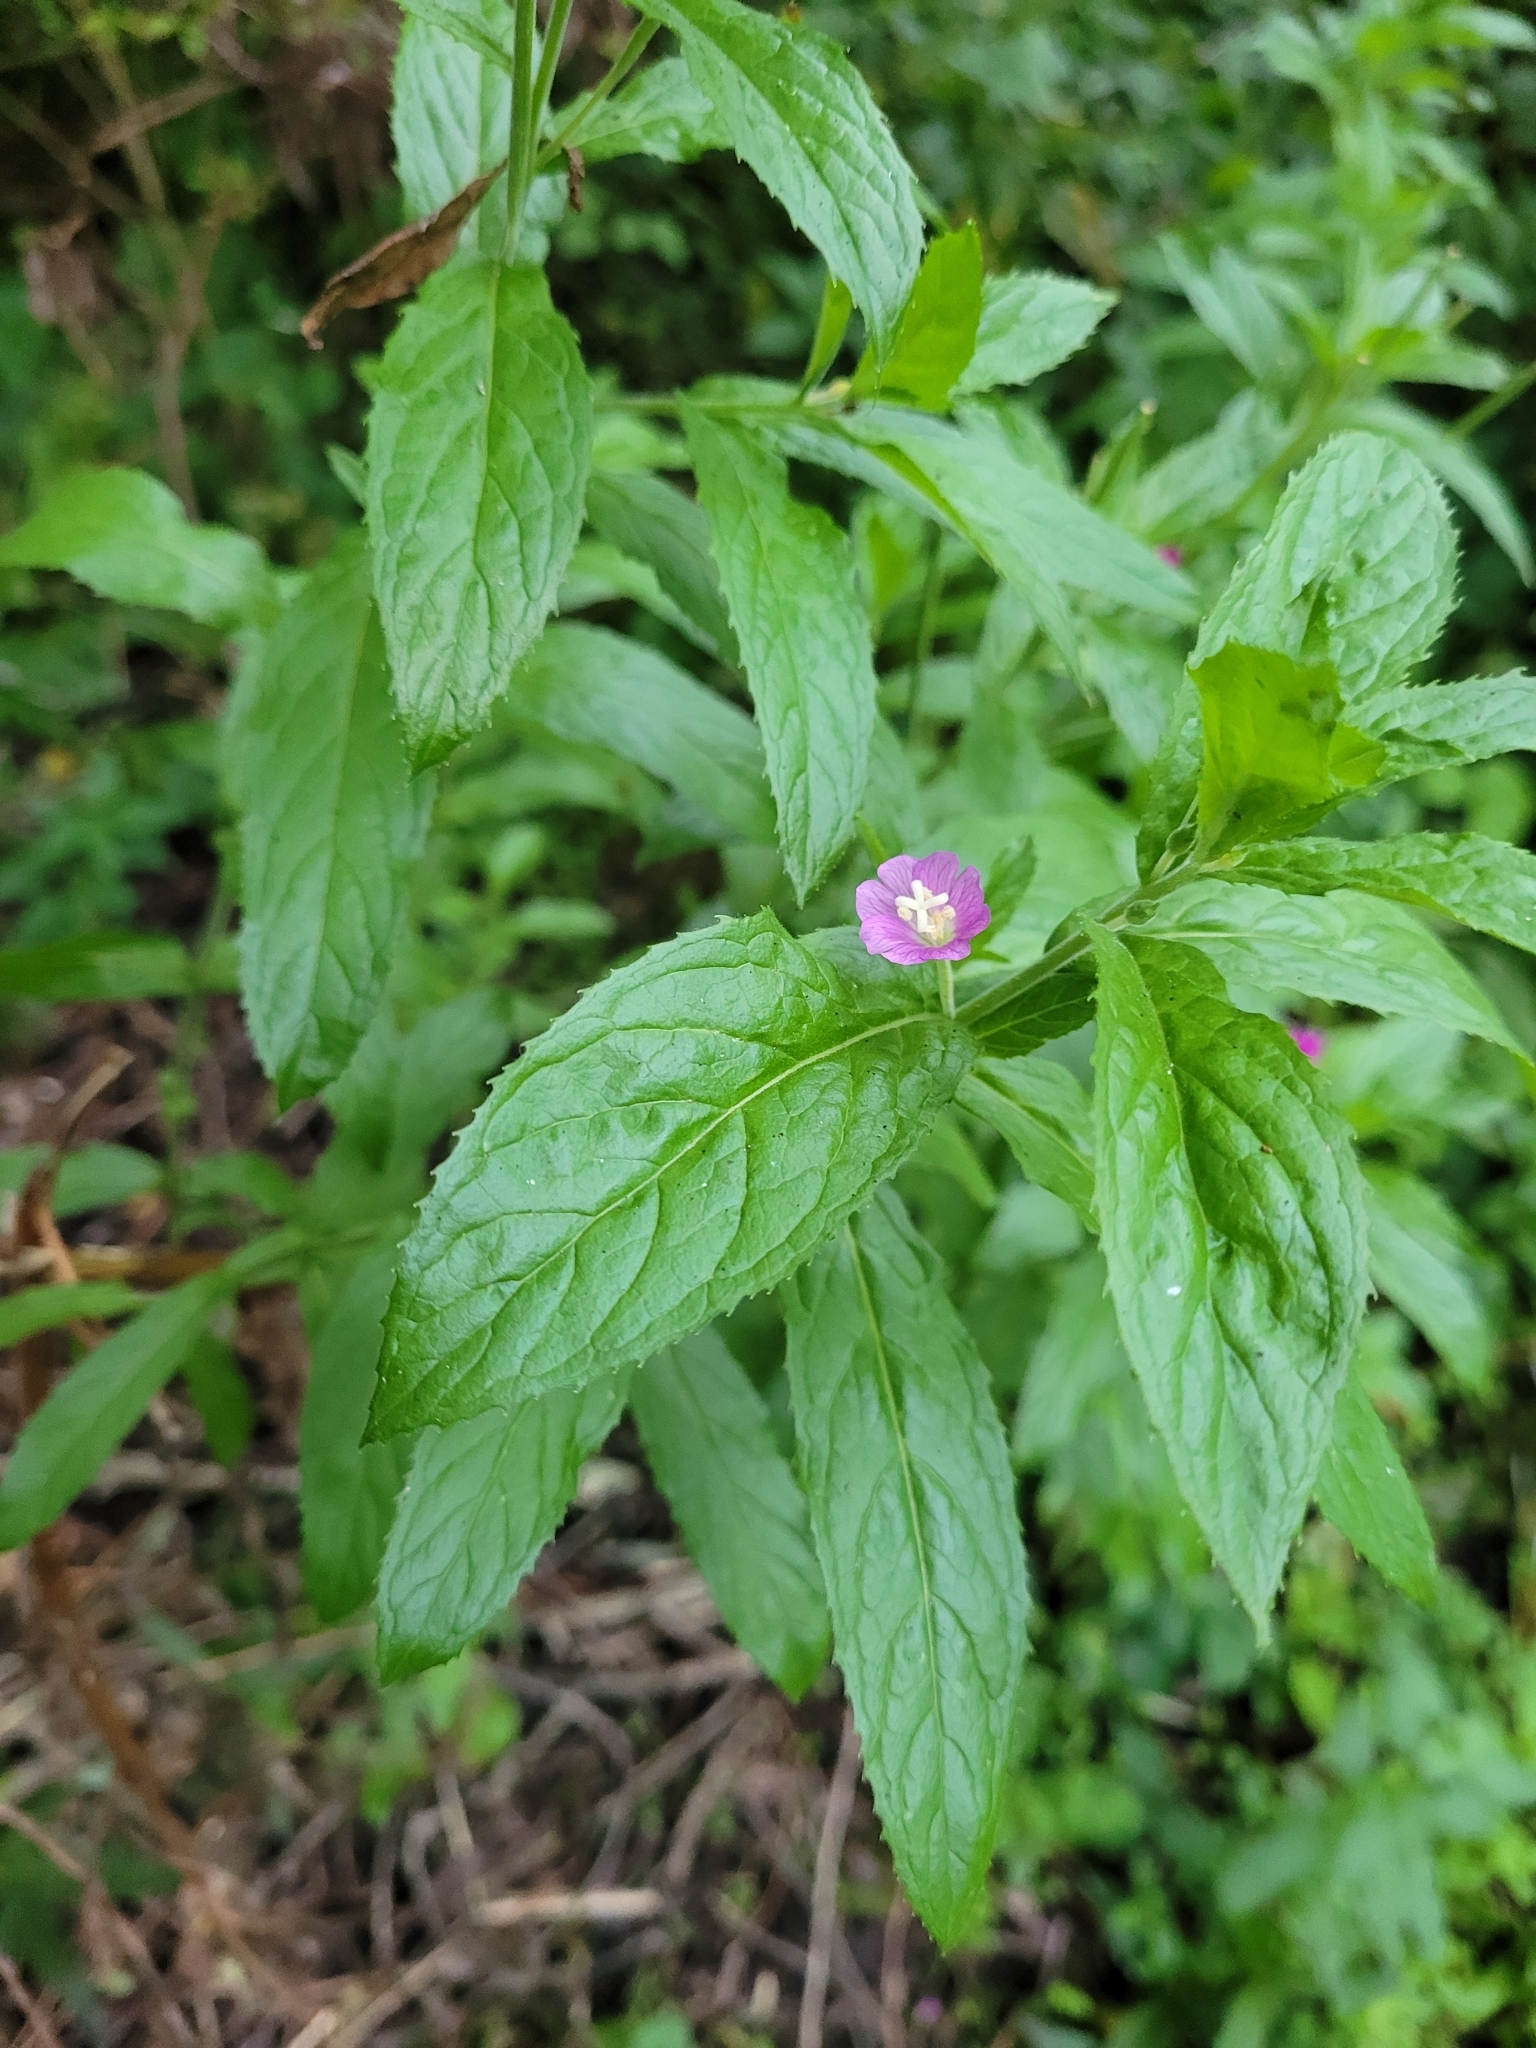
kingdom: Plantae
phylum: Tracheophyta
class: Magnoliopsida
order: Myrtales
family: Onagraceae
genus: Epilobium
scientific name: Epilobium hirsutum
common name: Great willowherb
